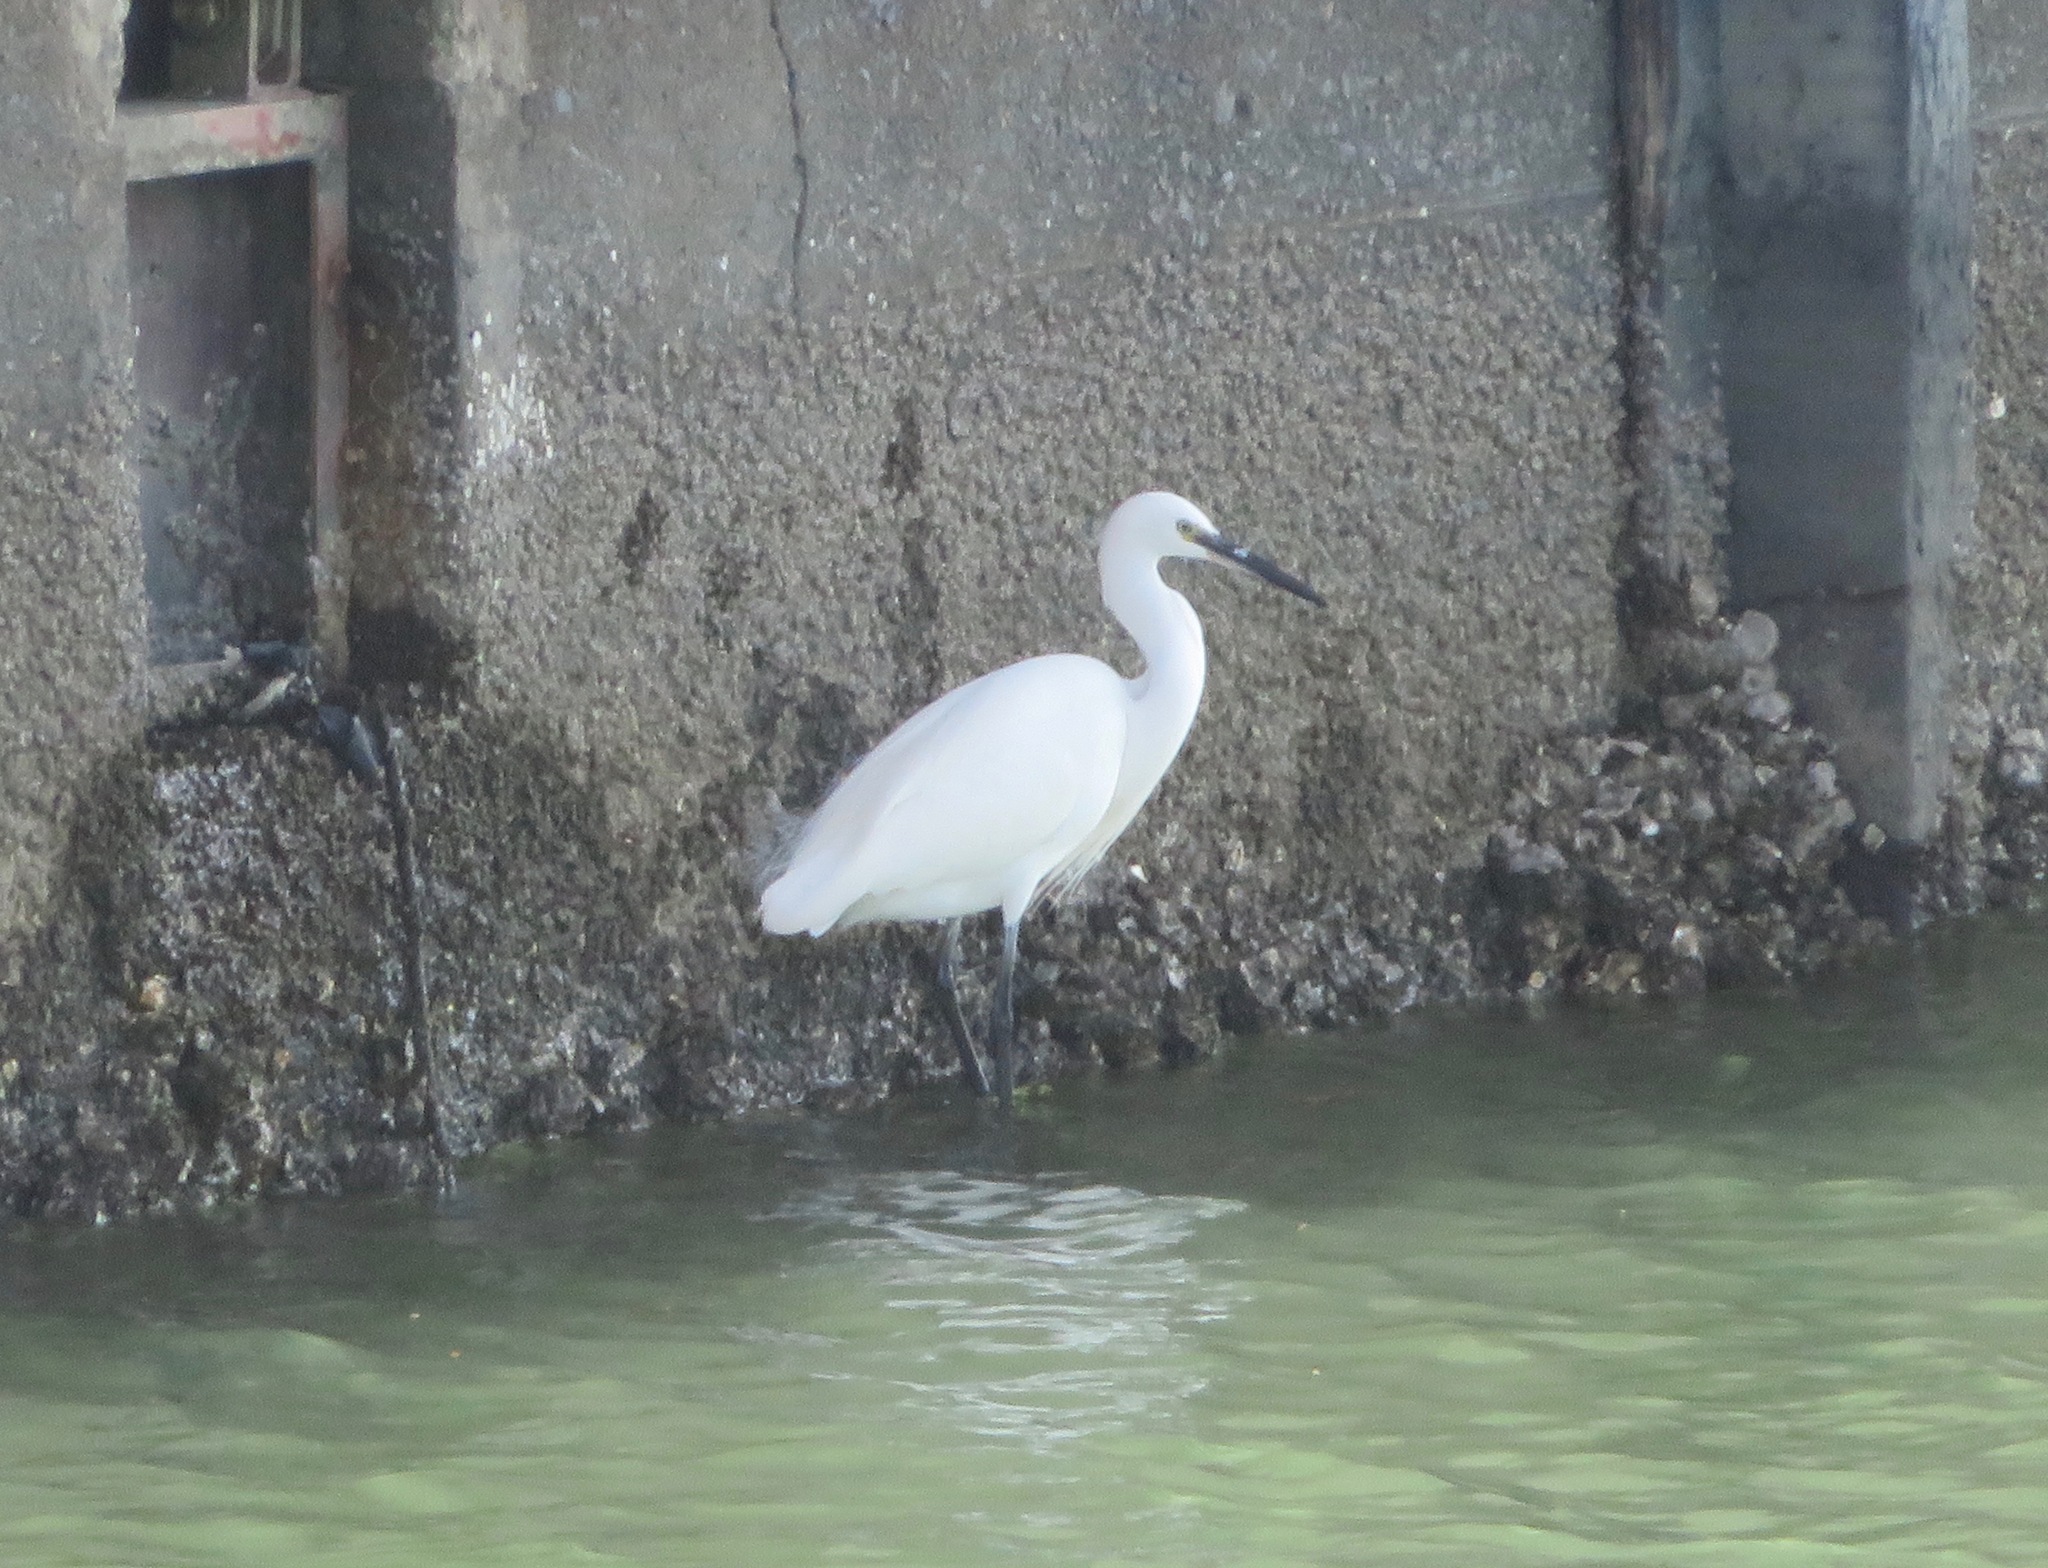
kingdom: Animalia
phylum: Chordata
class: Aves
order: Pelecaniformes
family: Ardeidae
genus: Egretta
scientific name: Egretta garzetta
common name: Little egret
